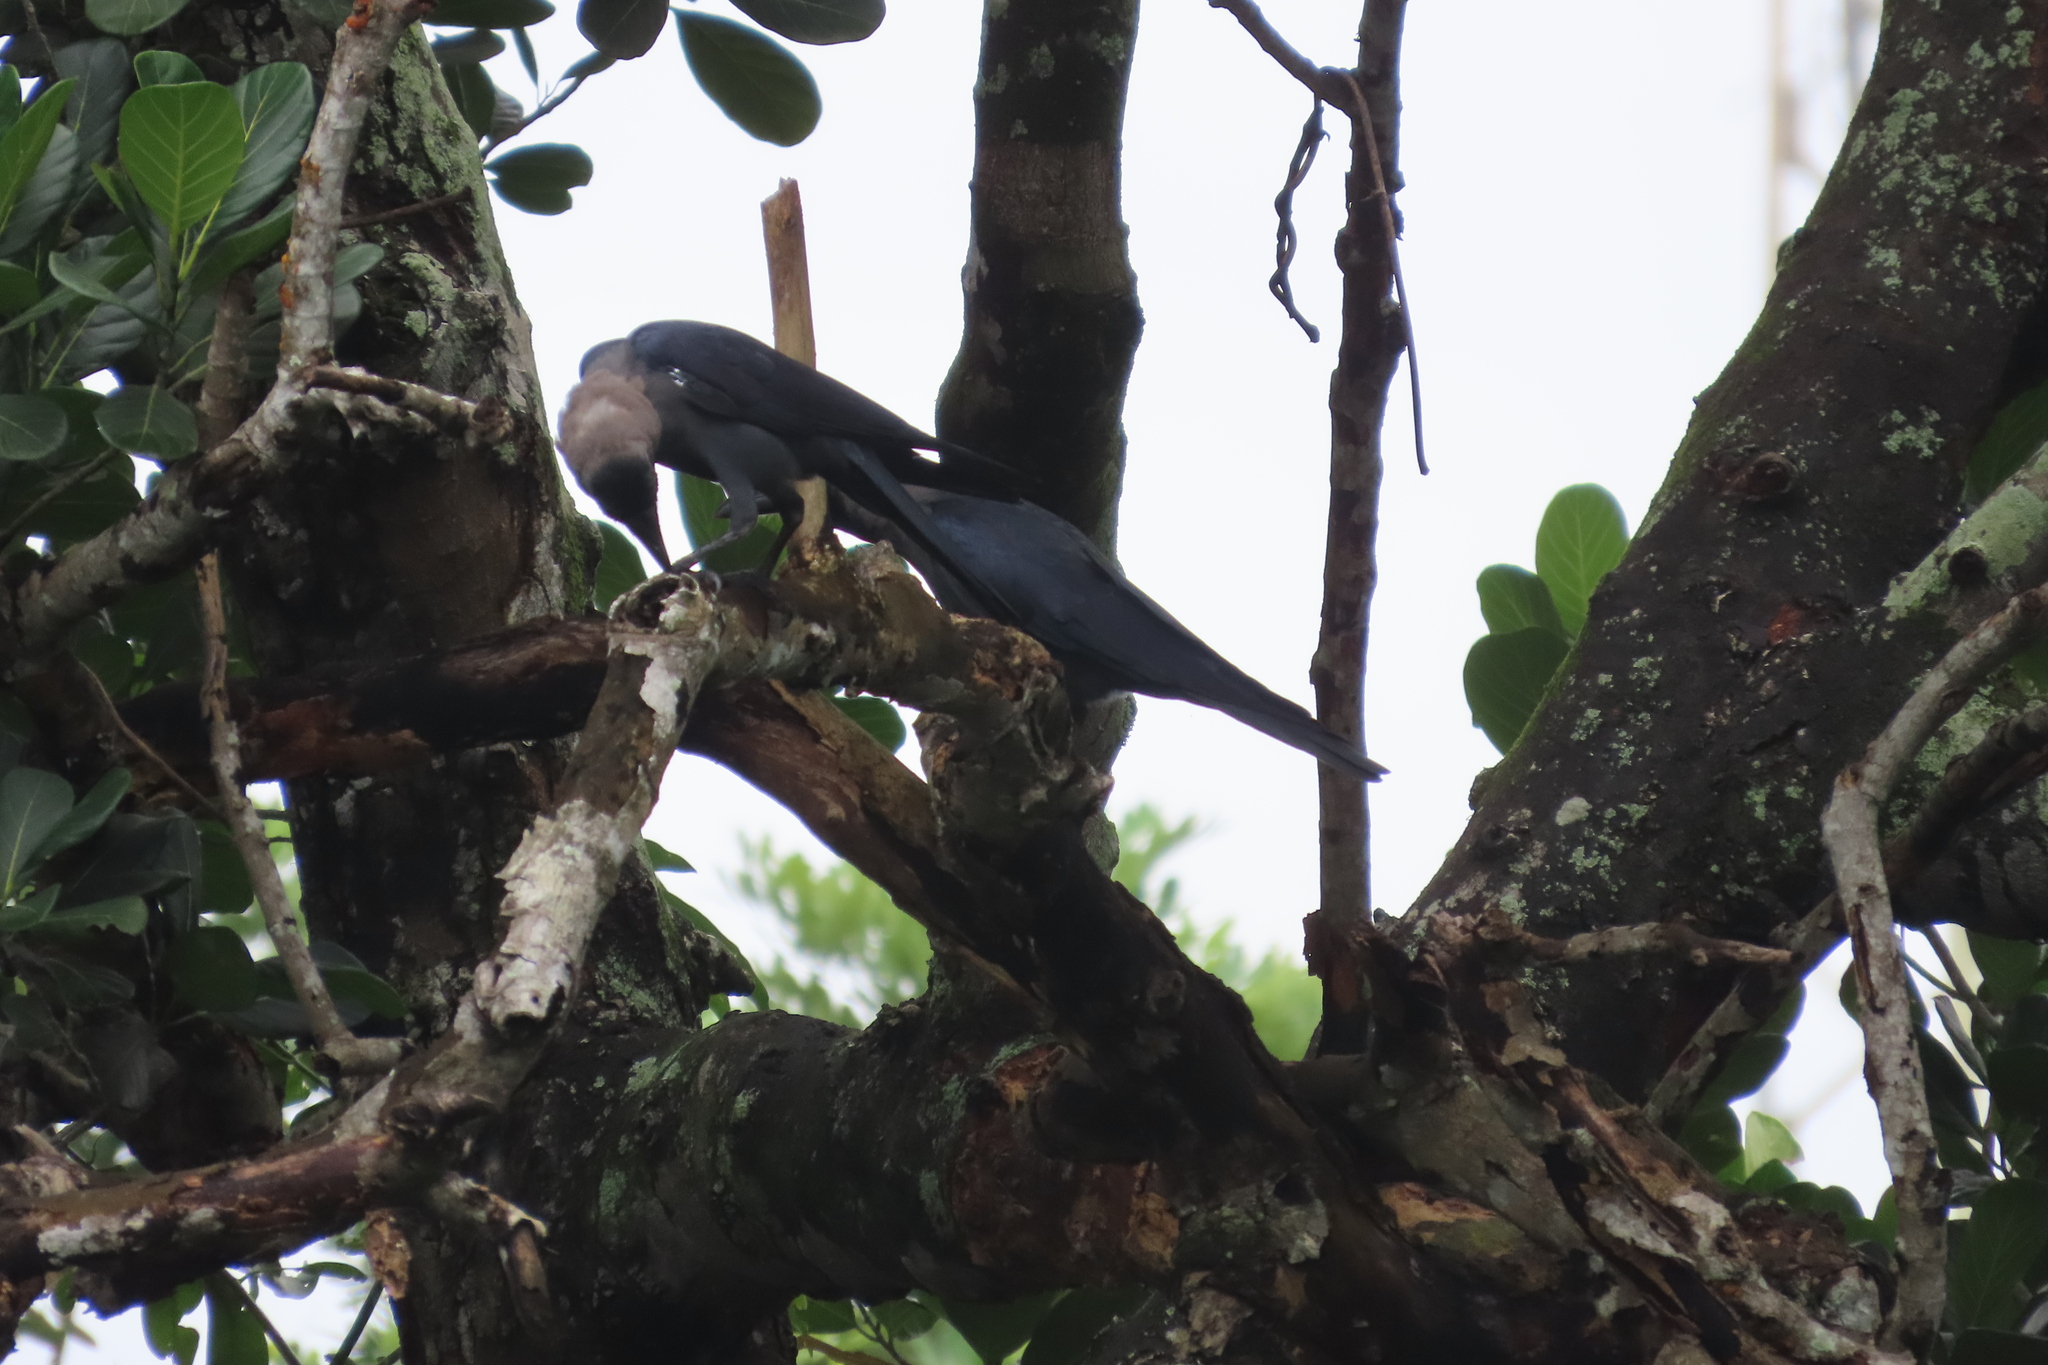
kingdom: Animalia
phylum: Chordata
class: Aves
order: Passeriformes
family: Corvidae
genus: Corvus
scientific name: Corvus splendens
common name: House crow
